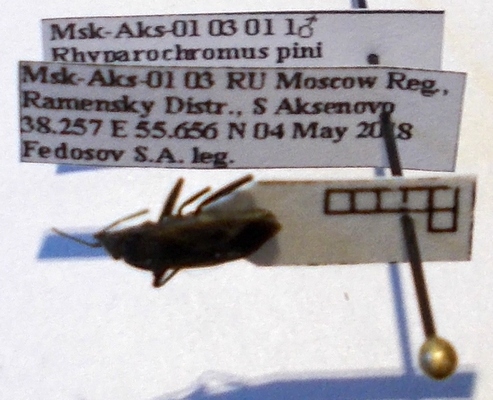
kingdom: Animalia
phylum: Arthropoda
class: Insecta
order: Hemiptera
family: Rhyparochromidae
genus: Rhyparochromus
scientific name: Rhyparochromus pini
